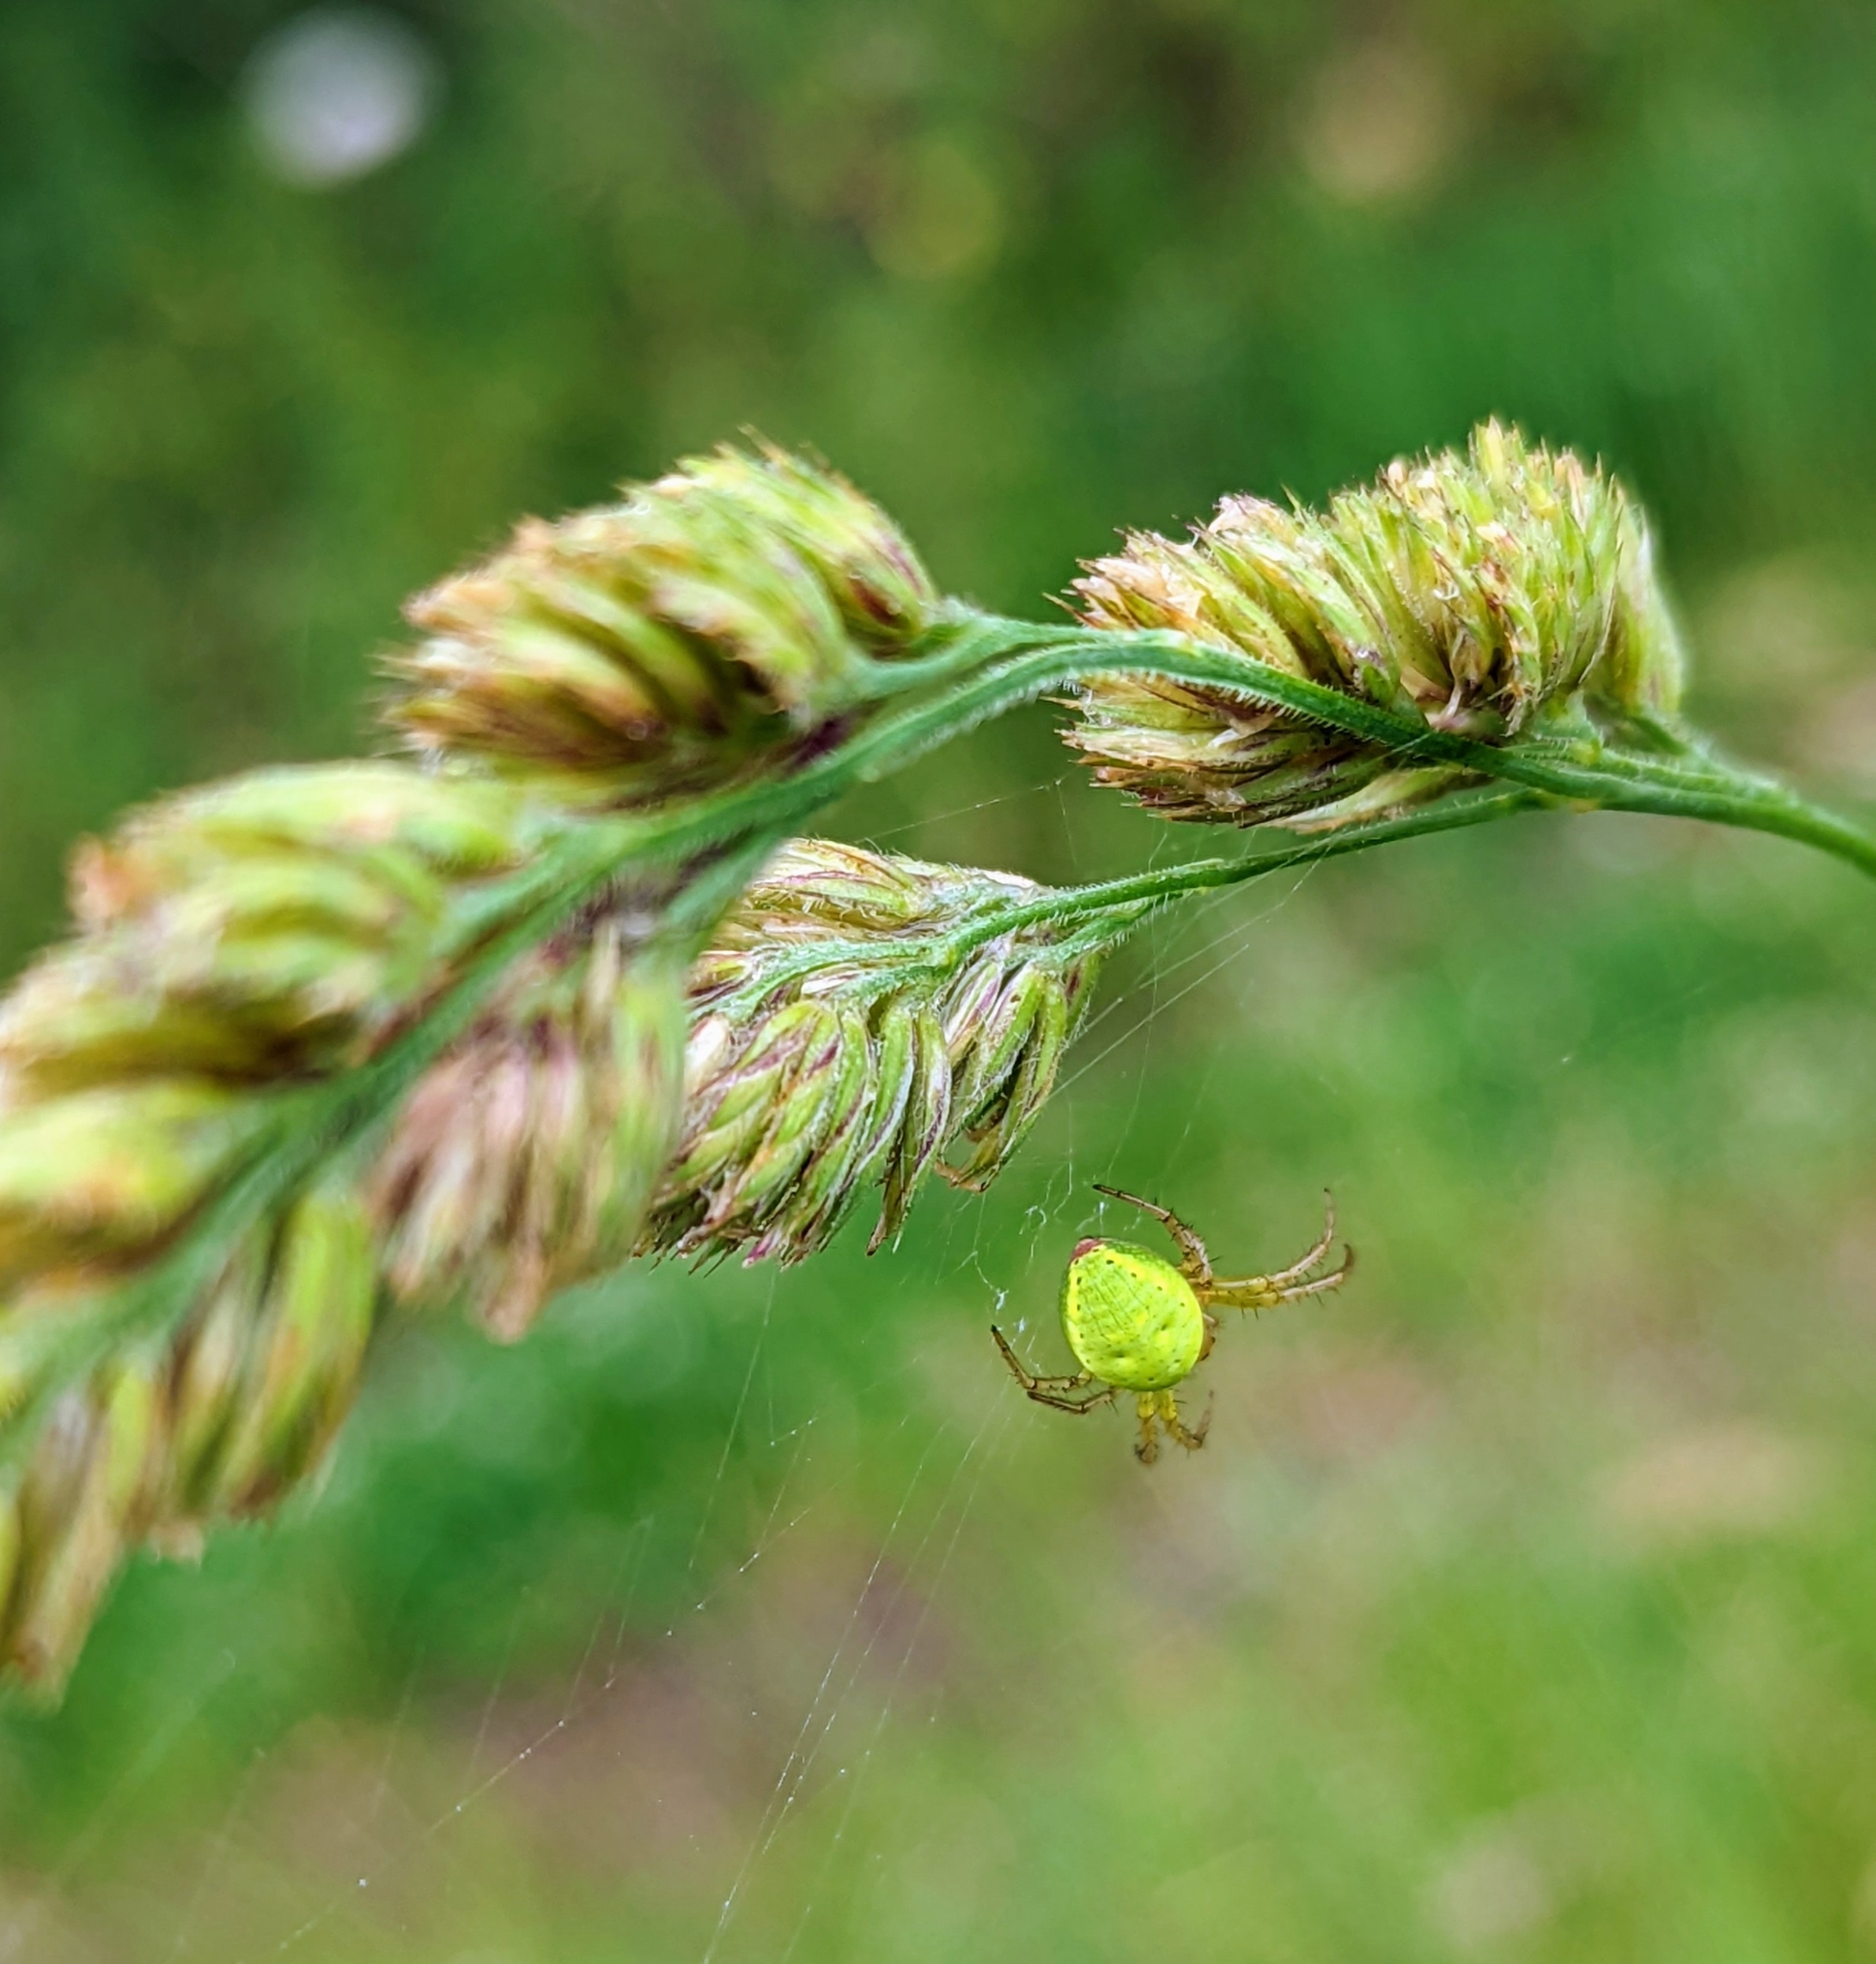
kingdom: Animalia
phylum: Arthropoda
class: Arachnida
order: Araneae
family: Araneidae
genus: Araniella
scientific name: Araniella cucurbitina
